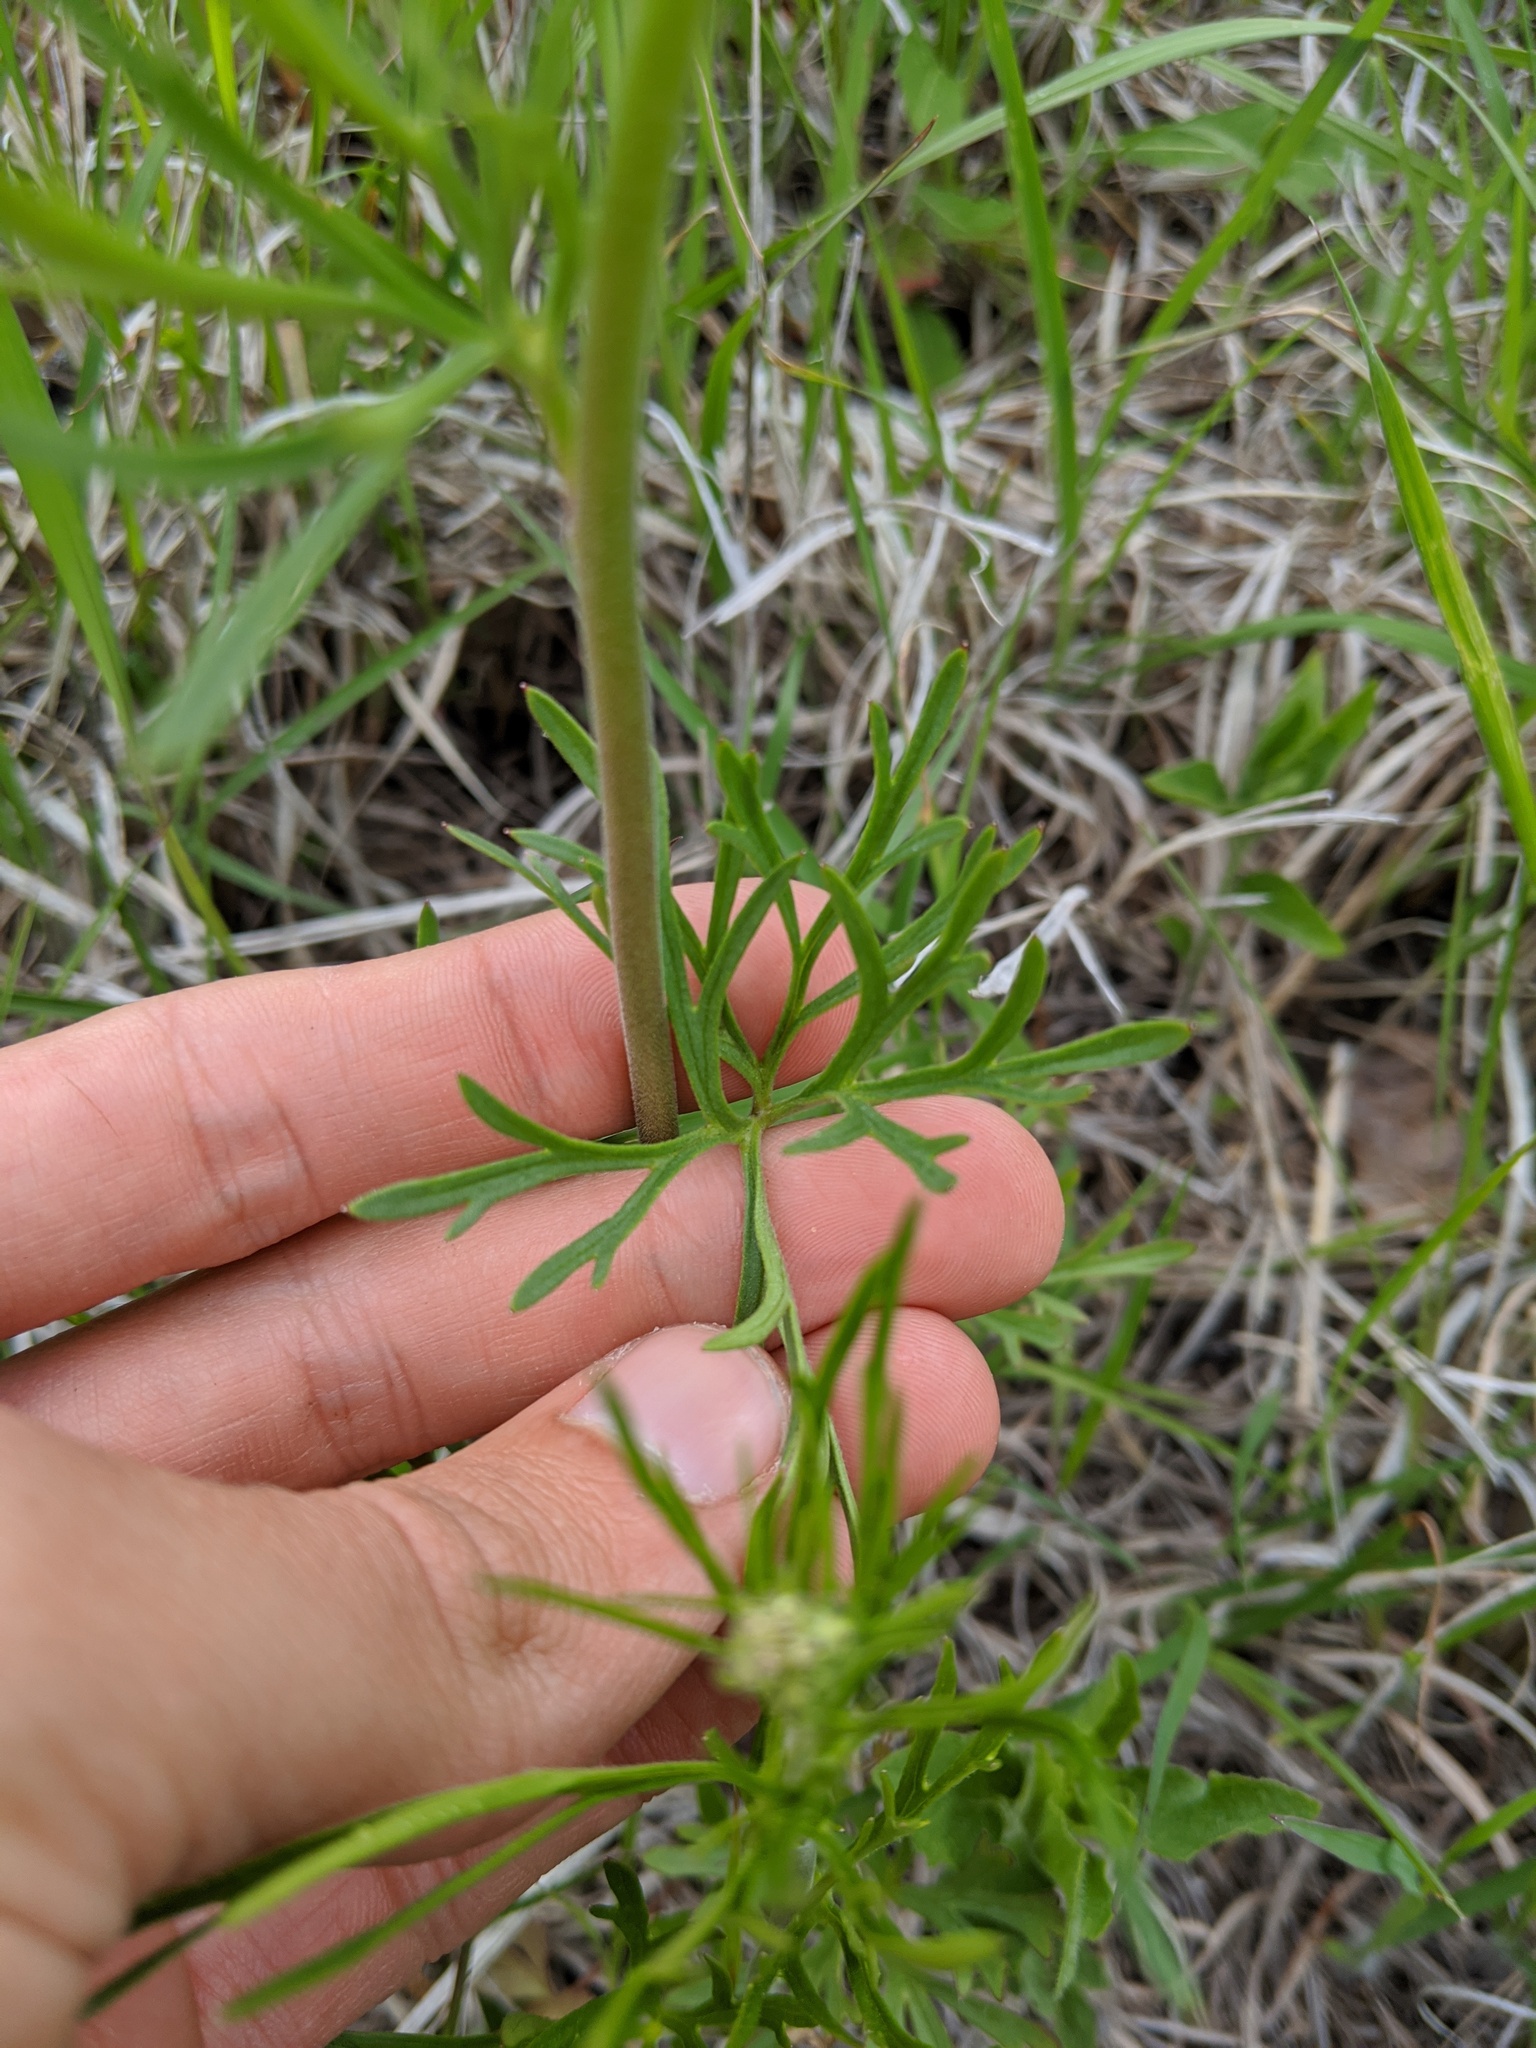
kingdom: Plantae
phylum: Tracheophyta
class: Magnoliopsida
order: Ranunculales
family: Ranunculaceae
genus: Delphinium
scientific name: Delphinium carolinianum
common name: Carolina larkspur
